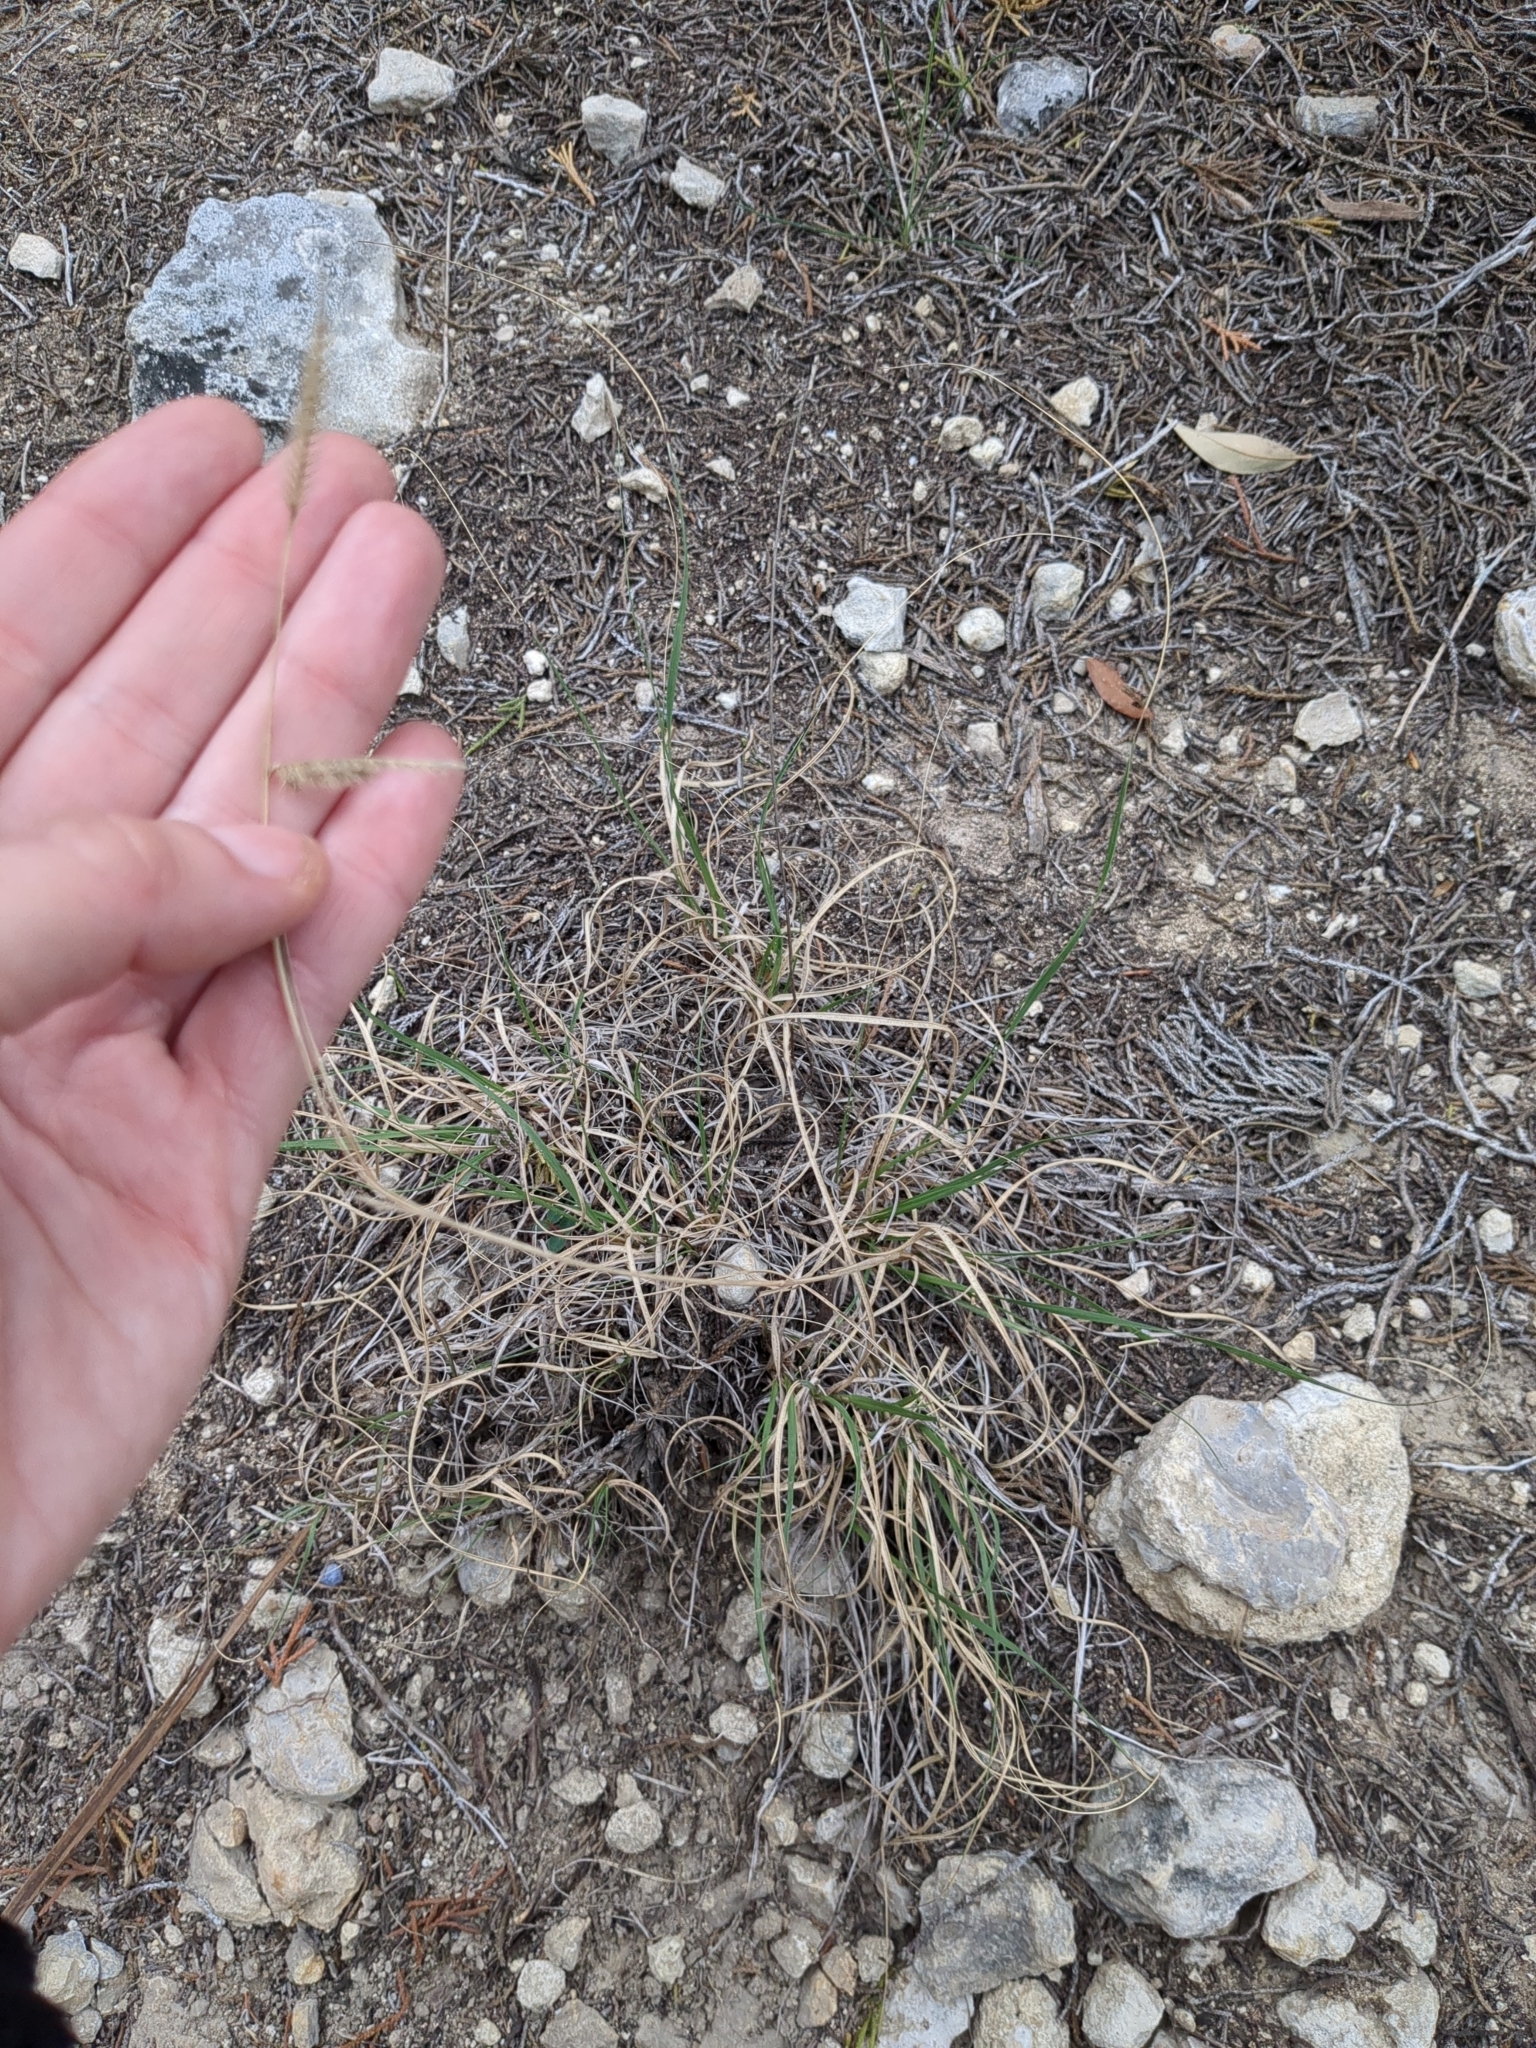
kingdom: Plantae
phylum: Tracheophyta
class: Liliopsida
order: Poales
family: Poaceae
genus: Bouteloua
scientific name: Bouteloua pectinata
